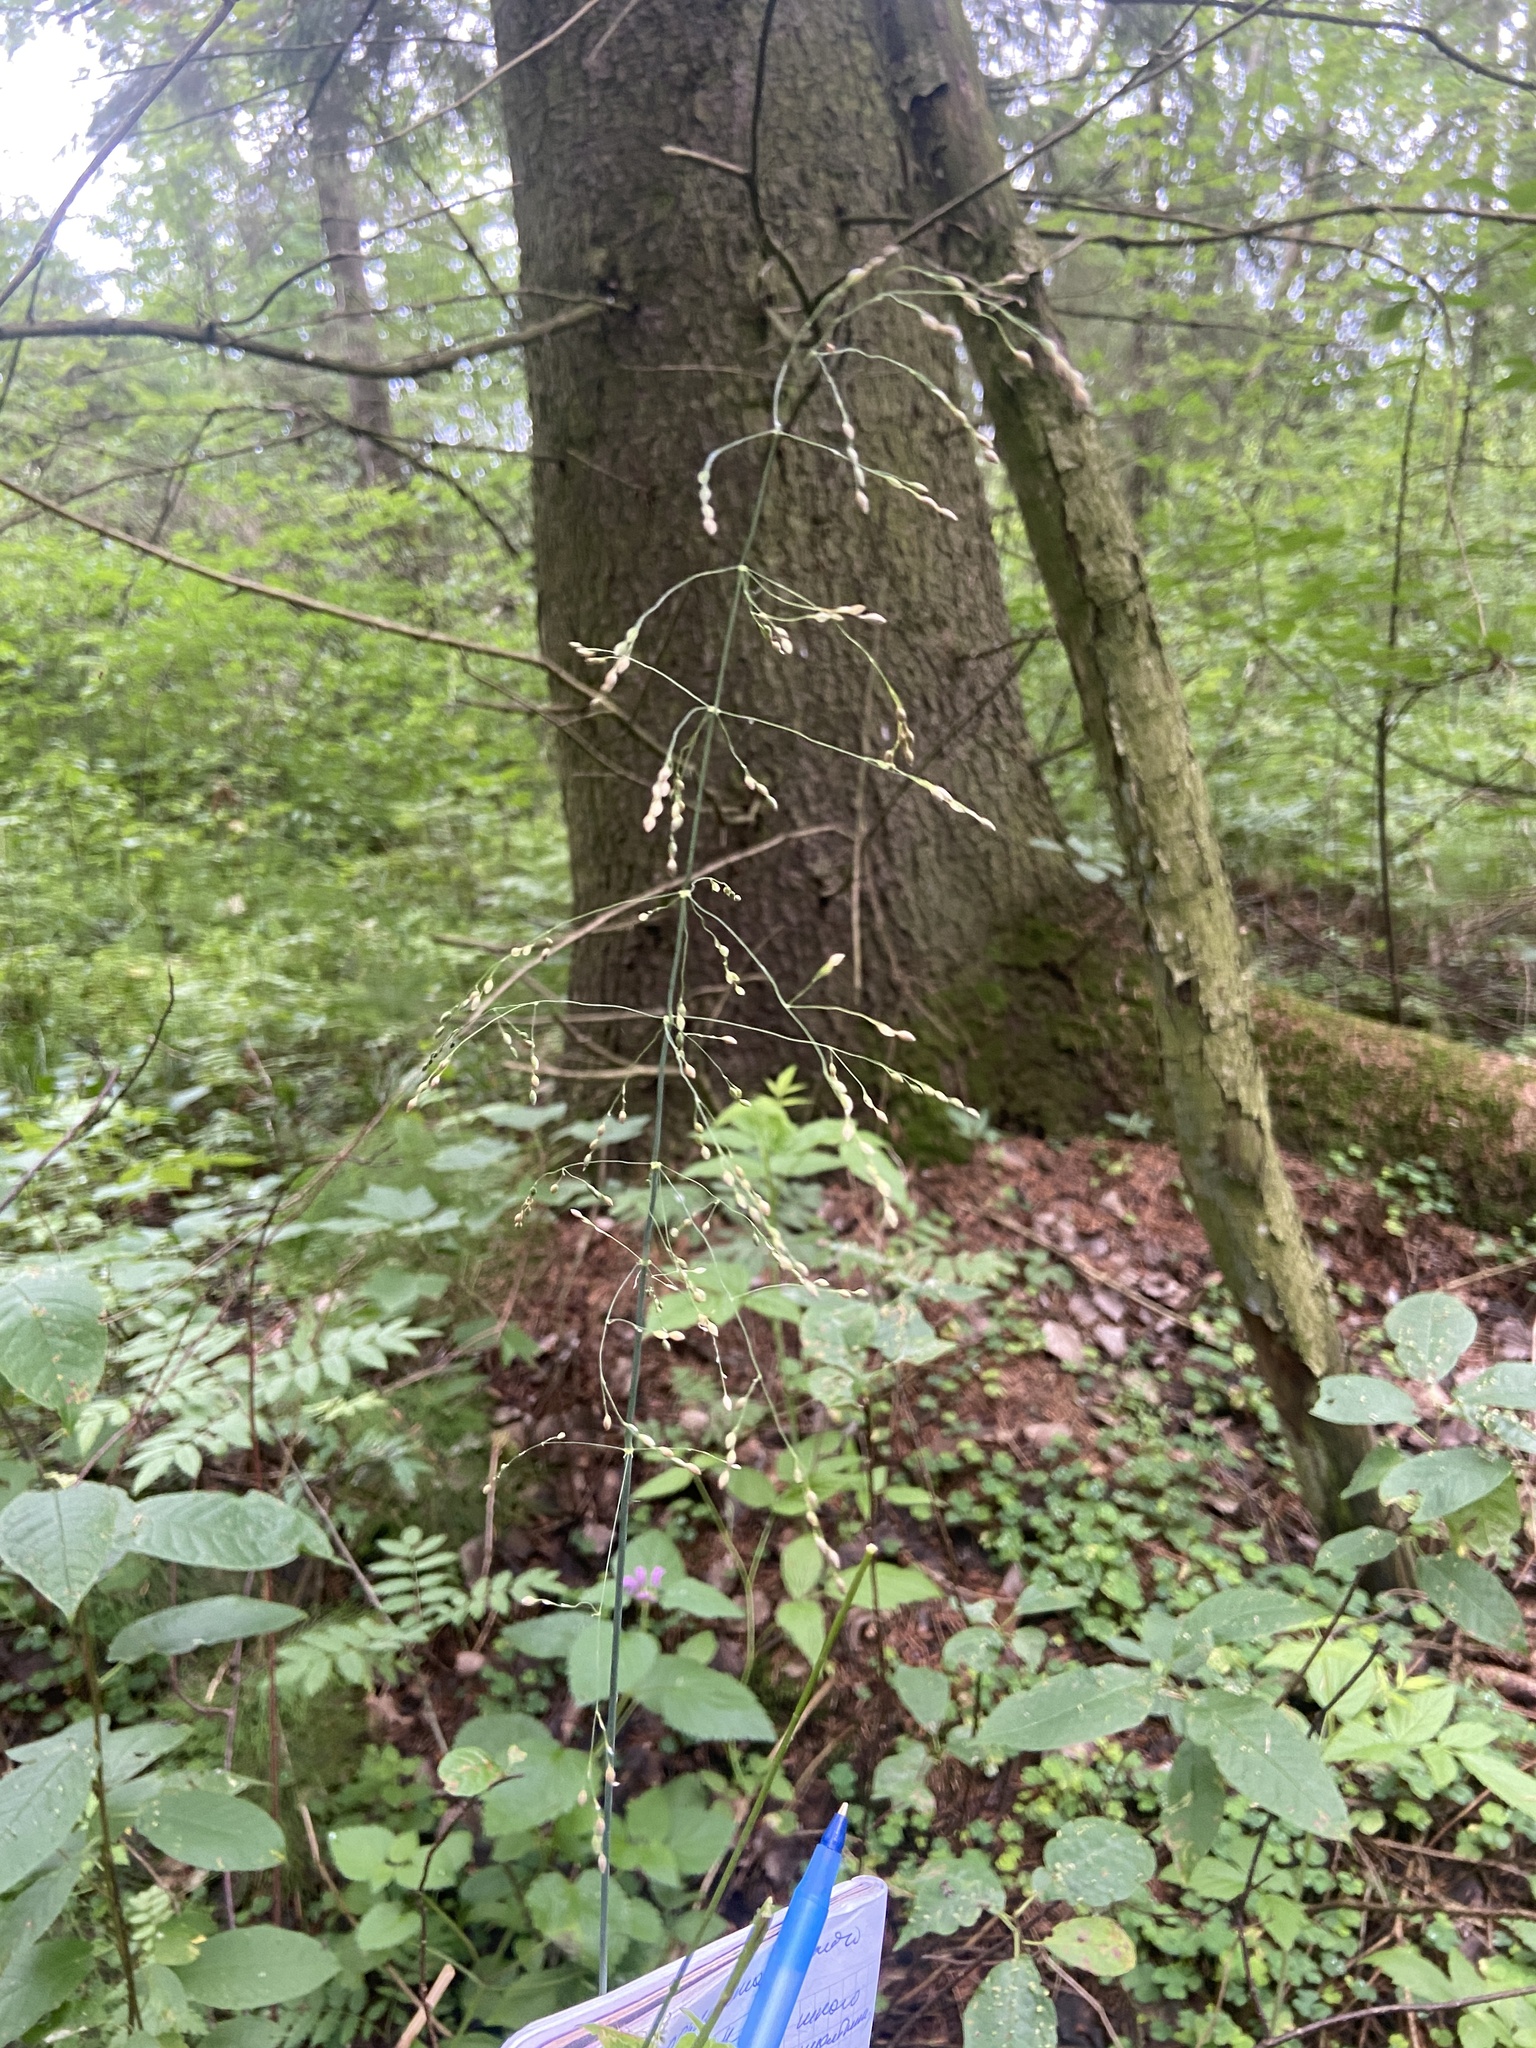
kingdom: Plantae
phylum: Tracheophyta
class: Liliopsida
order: Poales
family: Poaceae
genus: Milium
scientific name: Milium effusum
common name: Wood millet
